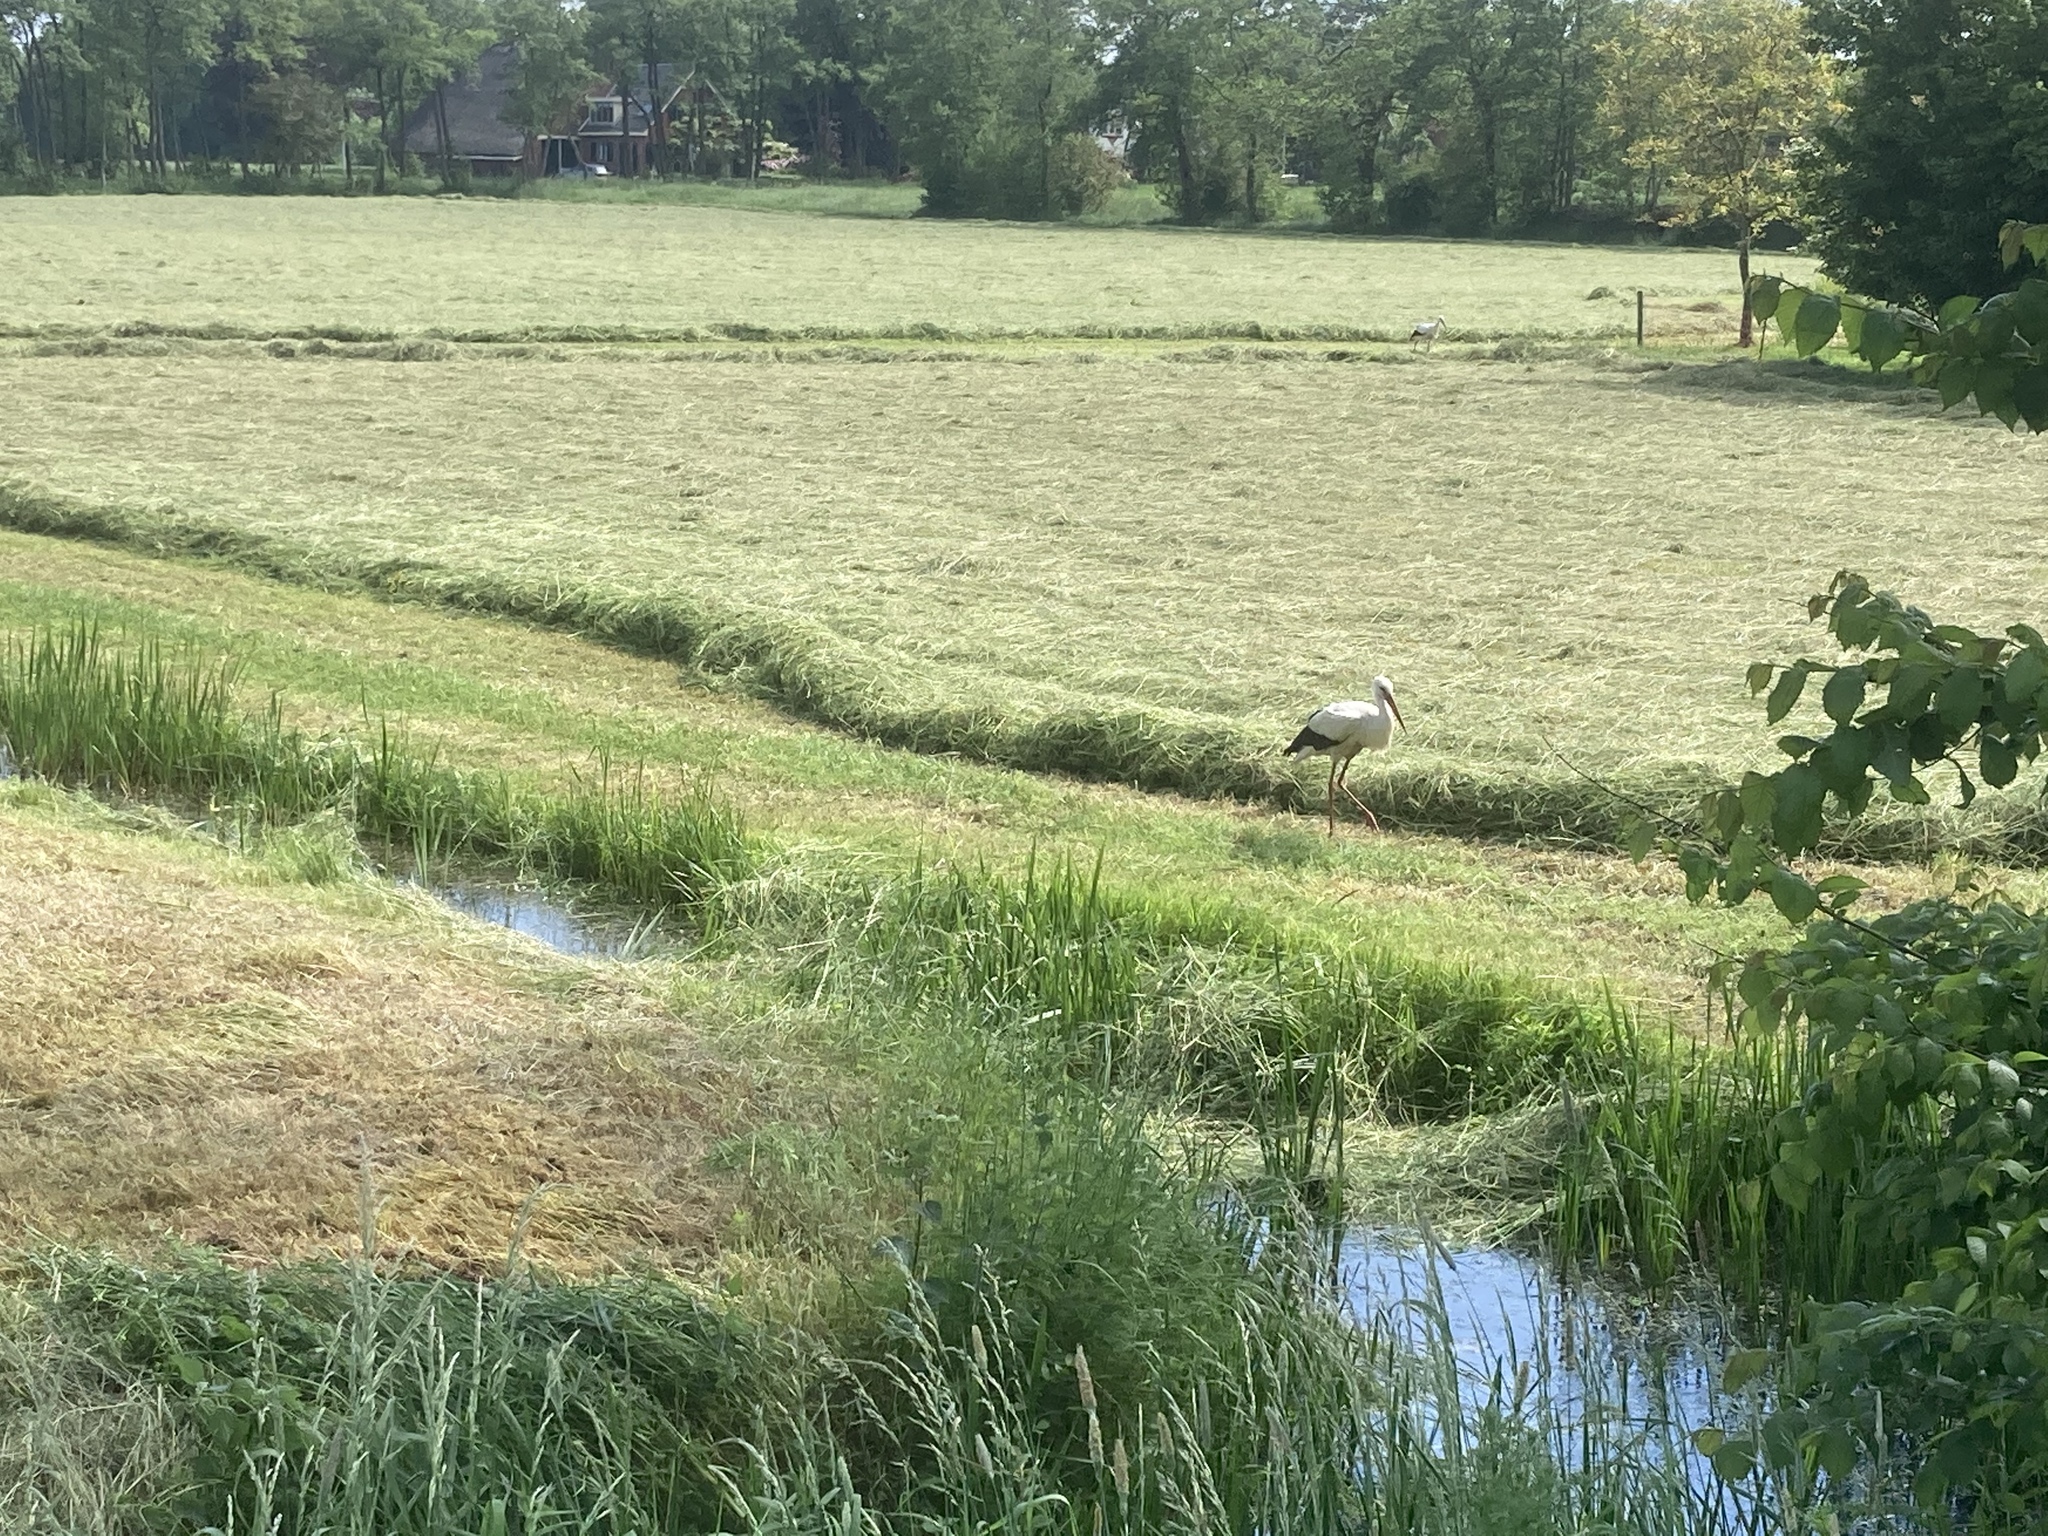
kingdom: Animalia
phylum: Chordata
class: Aves
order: Ciconiiformes
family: Ciconiidae
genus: Ciconia
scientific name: Ciconia ciconia
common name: White stork
